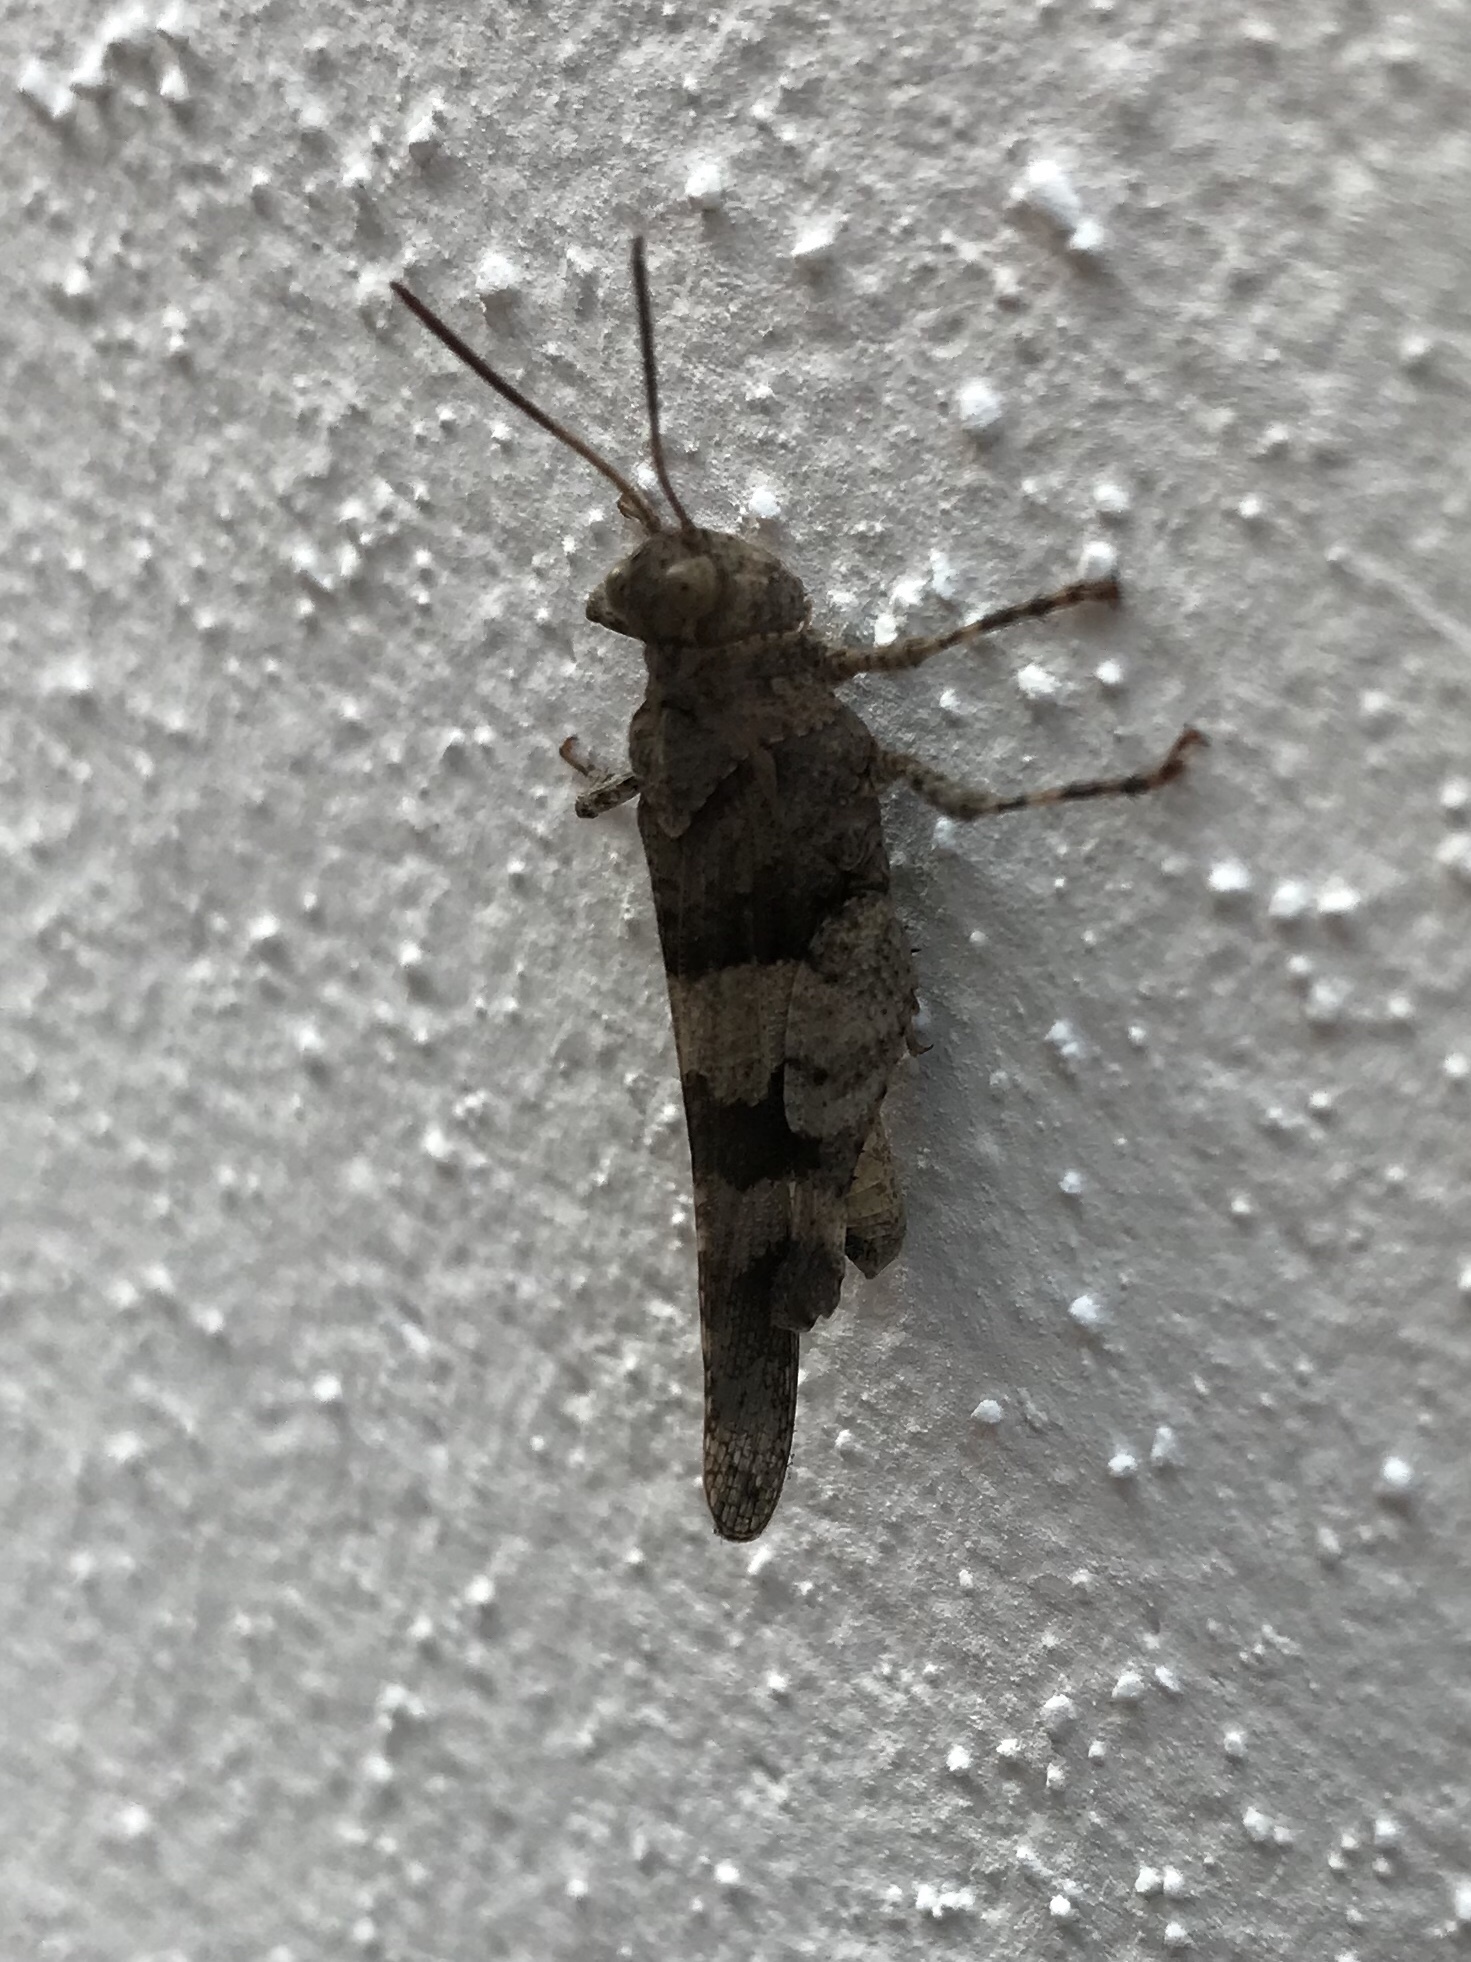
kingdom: Animalia
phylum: Arthropoda
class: Insecta
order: Orthoptera
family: Acrididae
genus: Oedipoda
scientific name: Oedipoda caerulescens
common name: Blue-winged grasshopper
